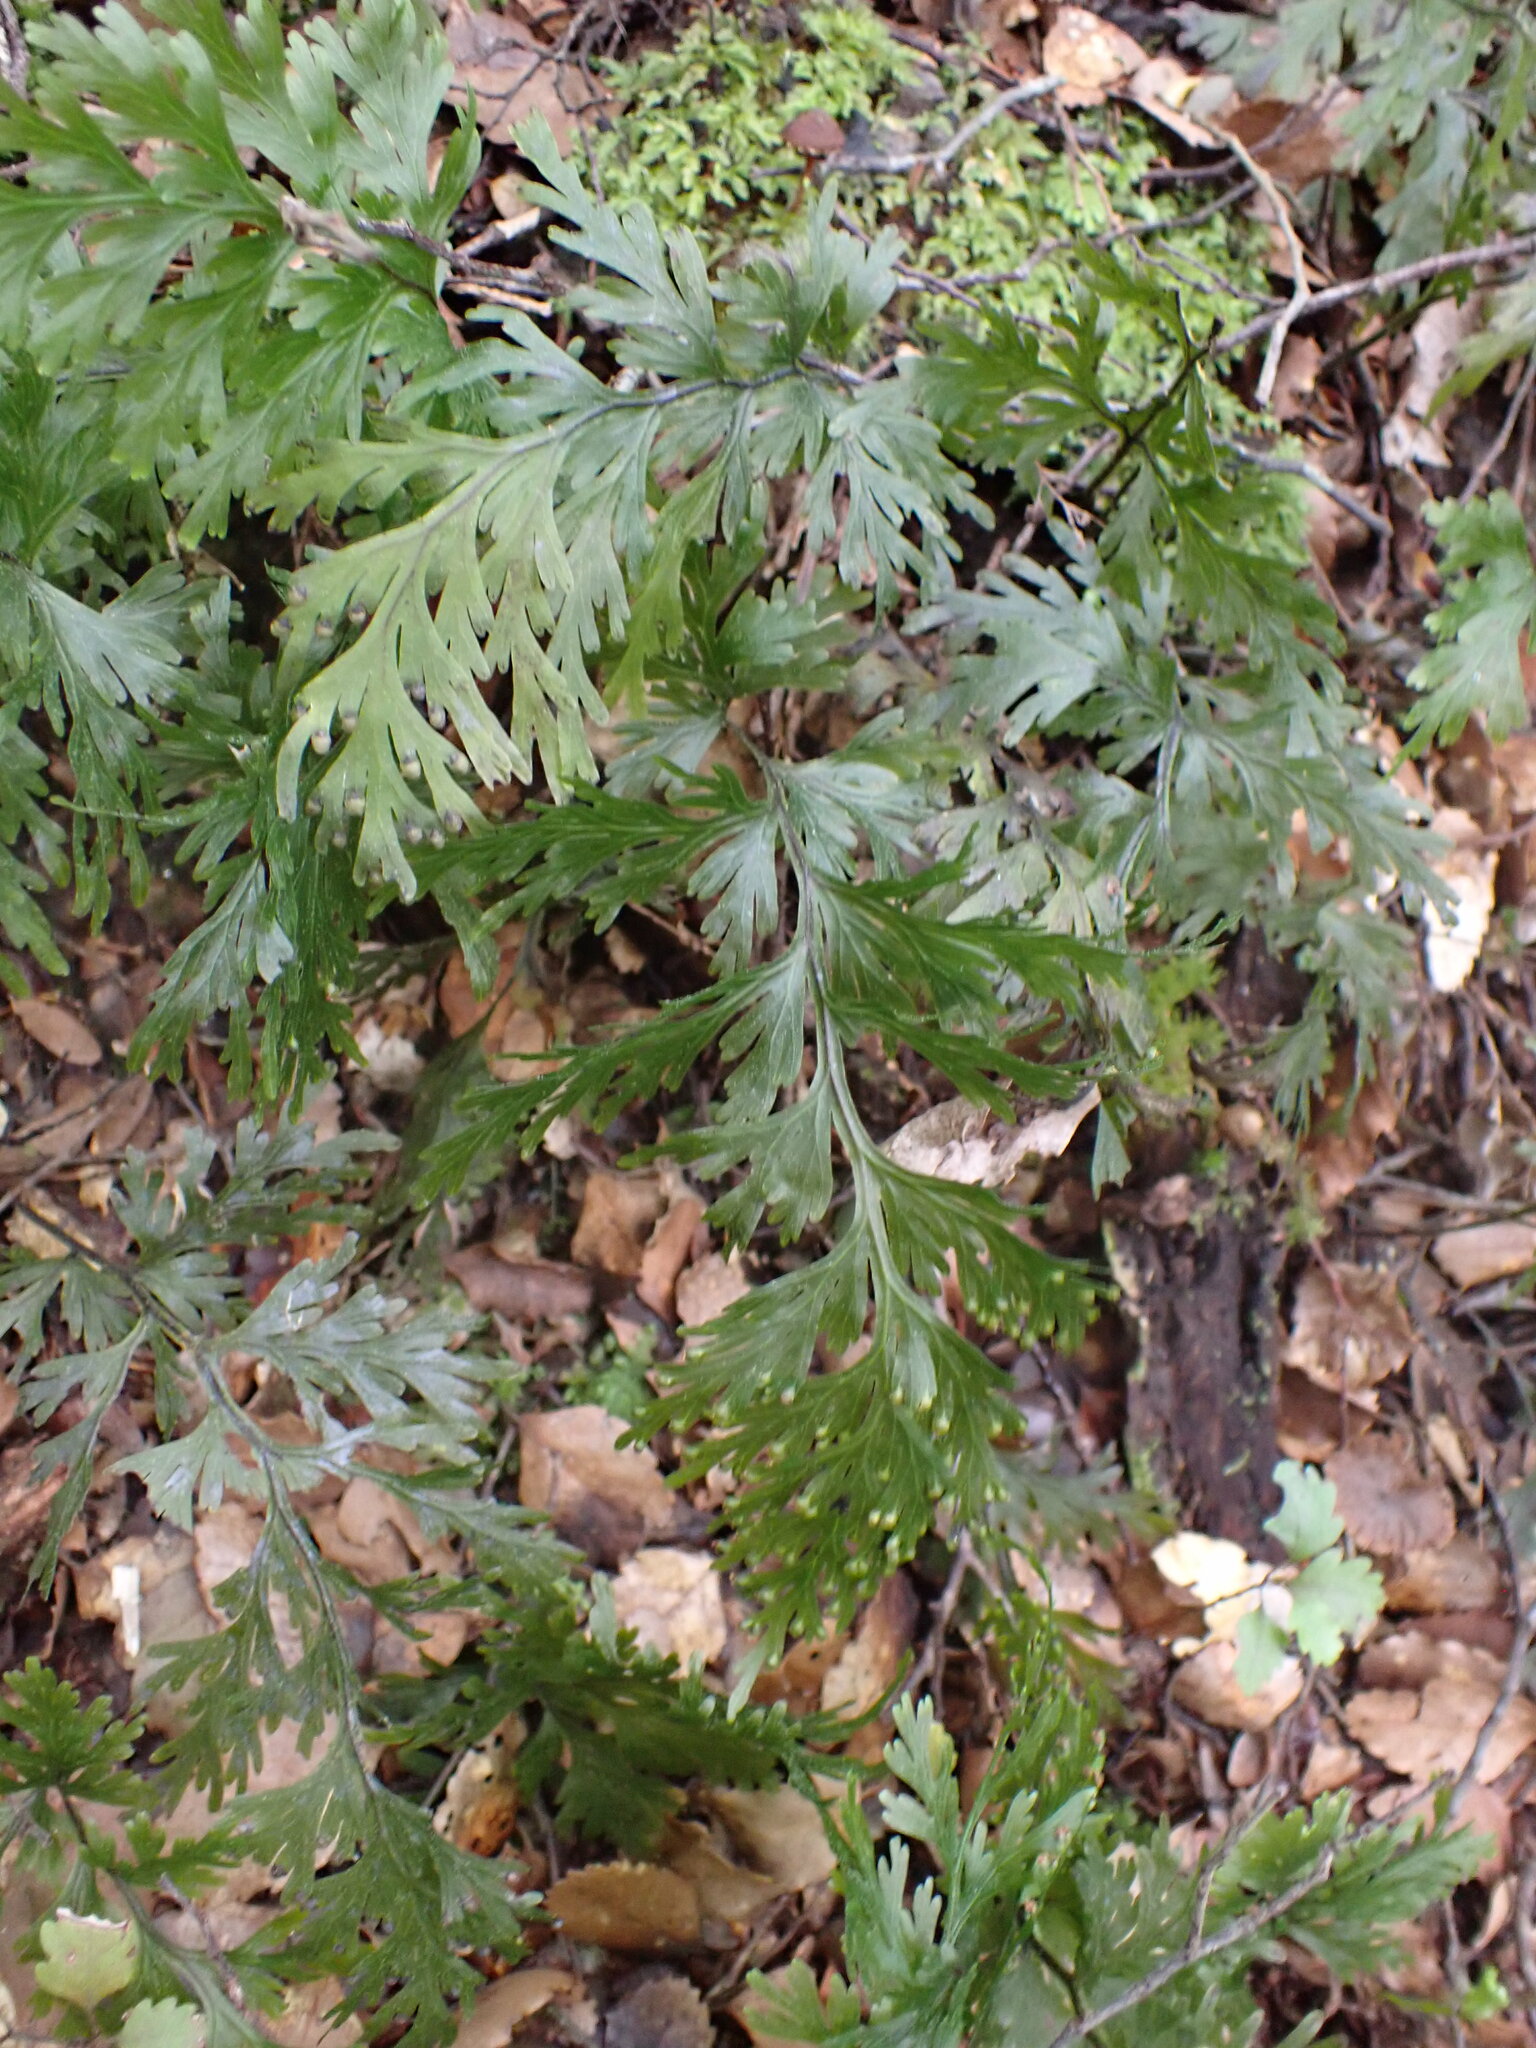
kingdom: Plantae
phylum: Tracheophyta
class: Polypodiopsida
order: Hymenophyllales
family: Hymenophyllaceae
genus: Hymenophyllum
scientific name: Hymenophyllum dilatatum
